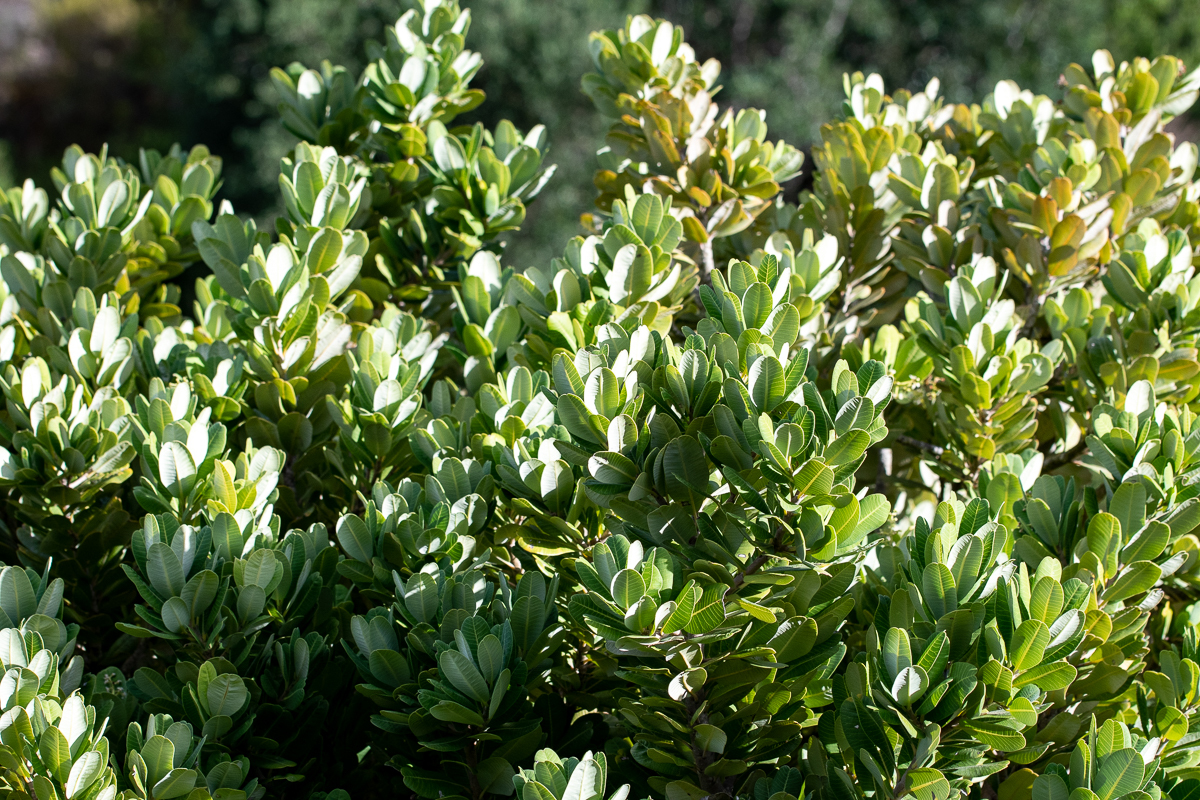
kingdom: Plantae
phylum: Tracheophyta
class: Magnoliopsida
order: Sapindales
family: Anacardiaceae
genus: Heeria
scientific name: Heeria argentea
